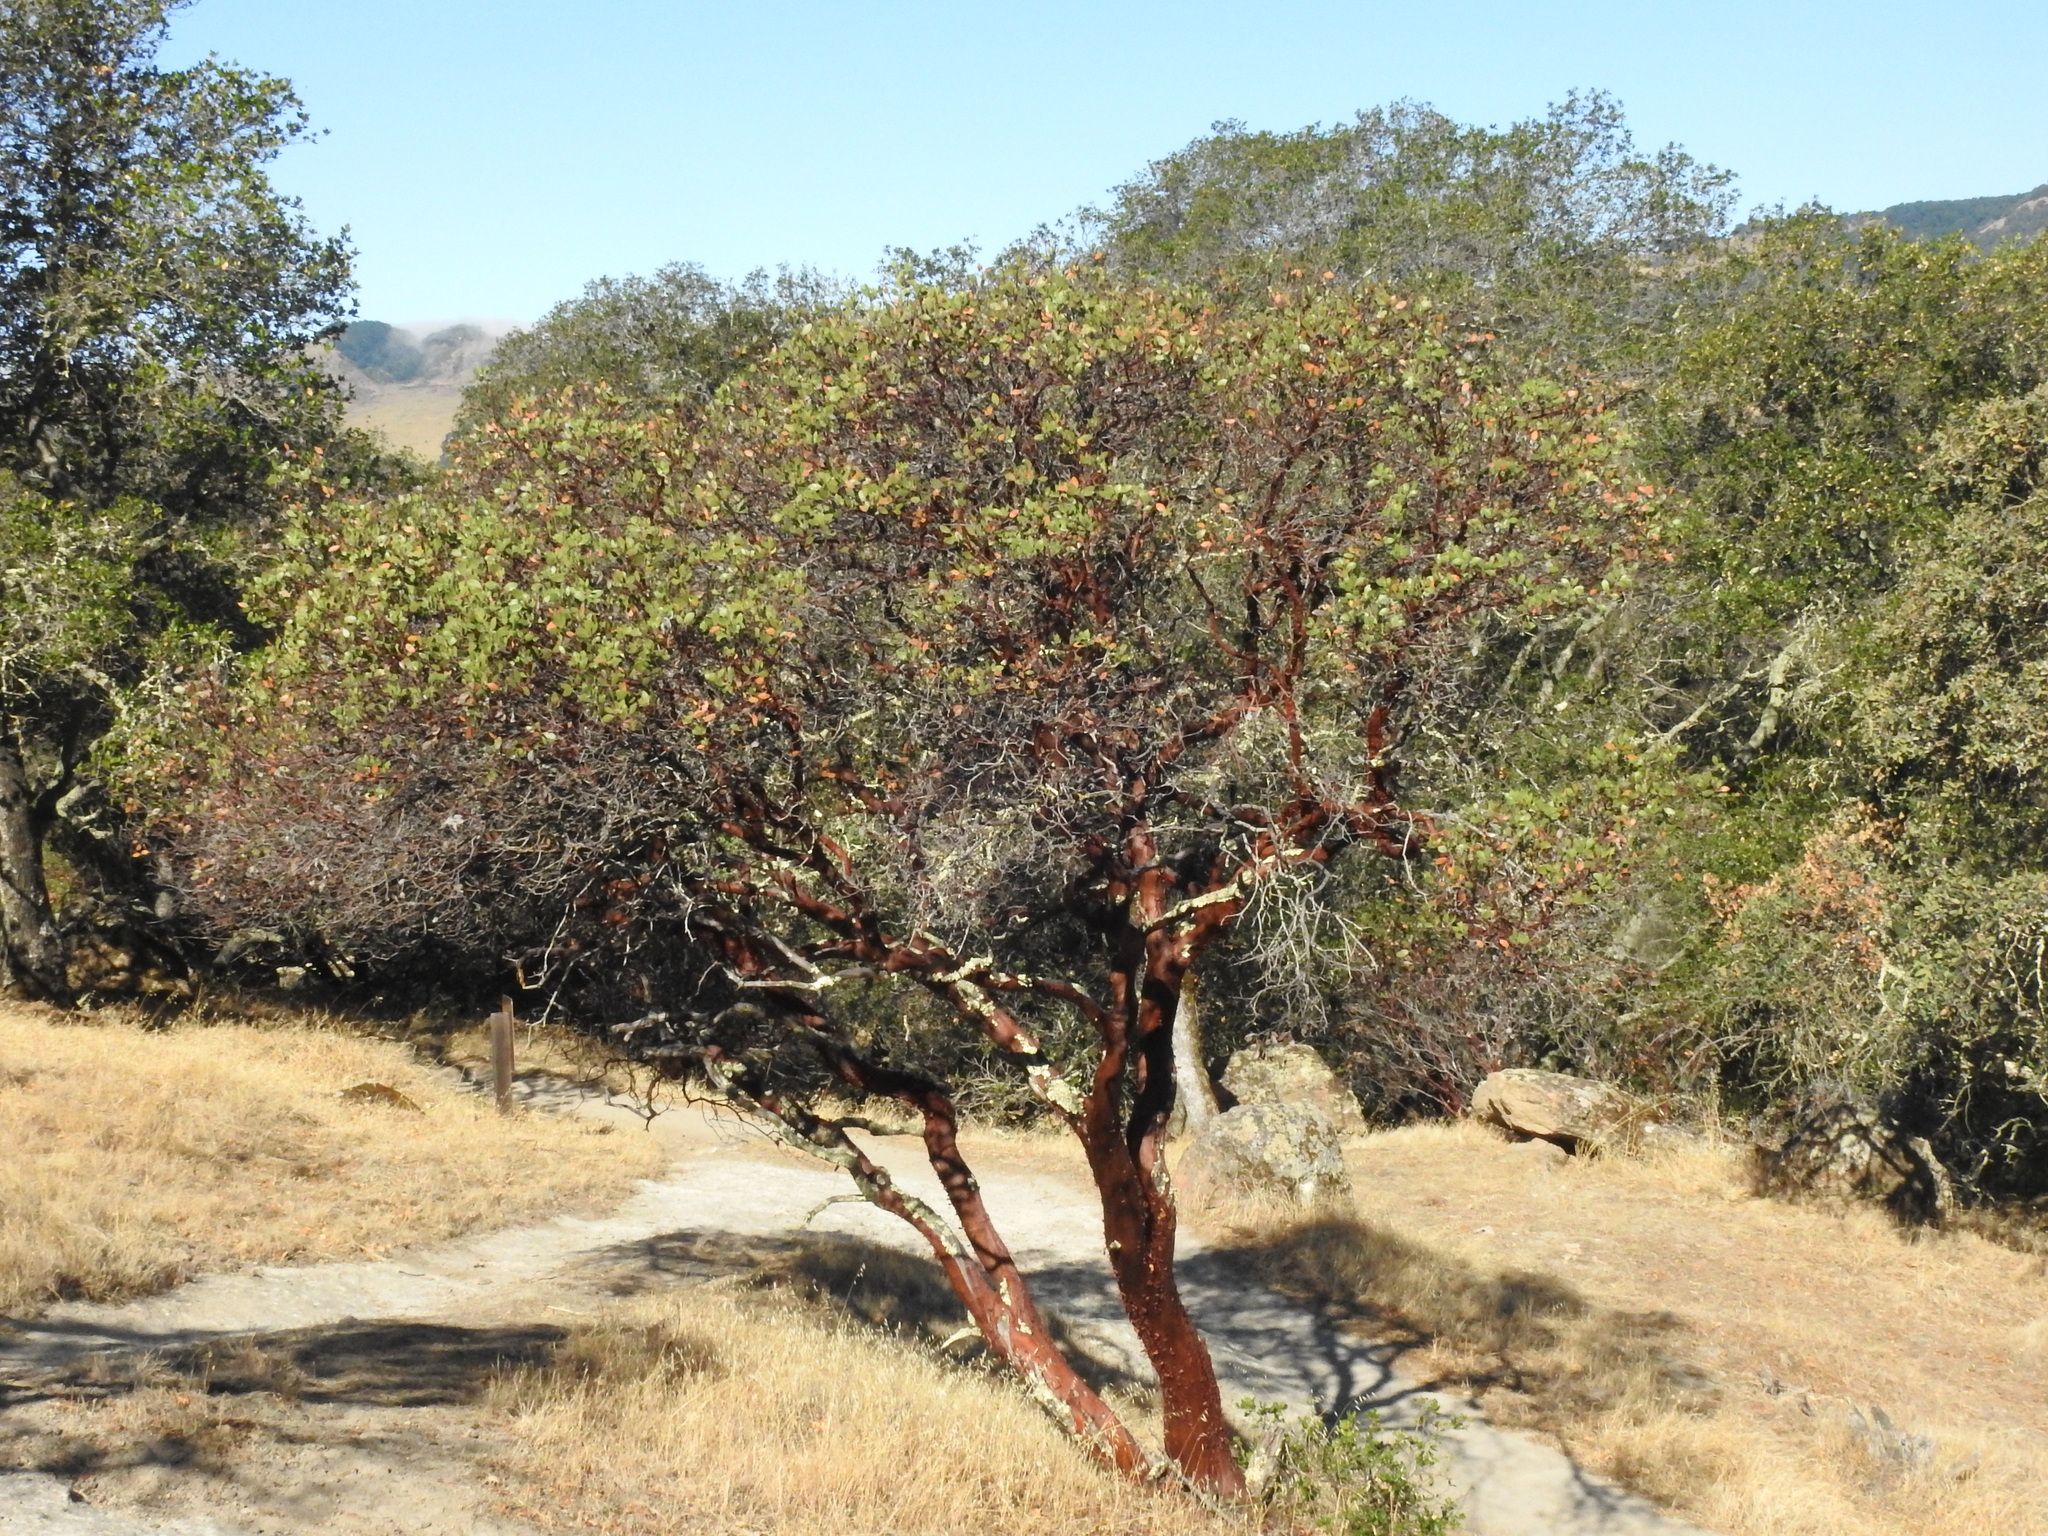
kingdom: Plantae
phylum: Tracheophyta
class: Magnoliopsida
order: Ericales
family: Ericaceae
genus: Arctostaphylos
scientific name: Arctostaphylos manzanita
